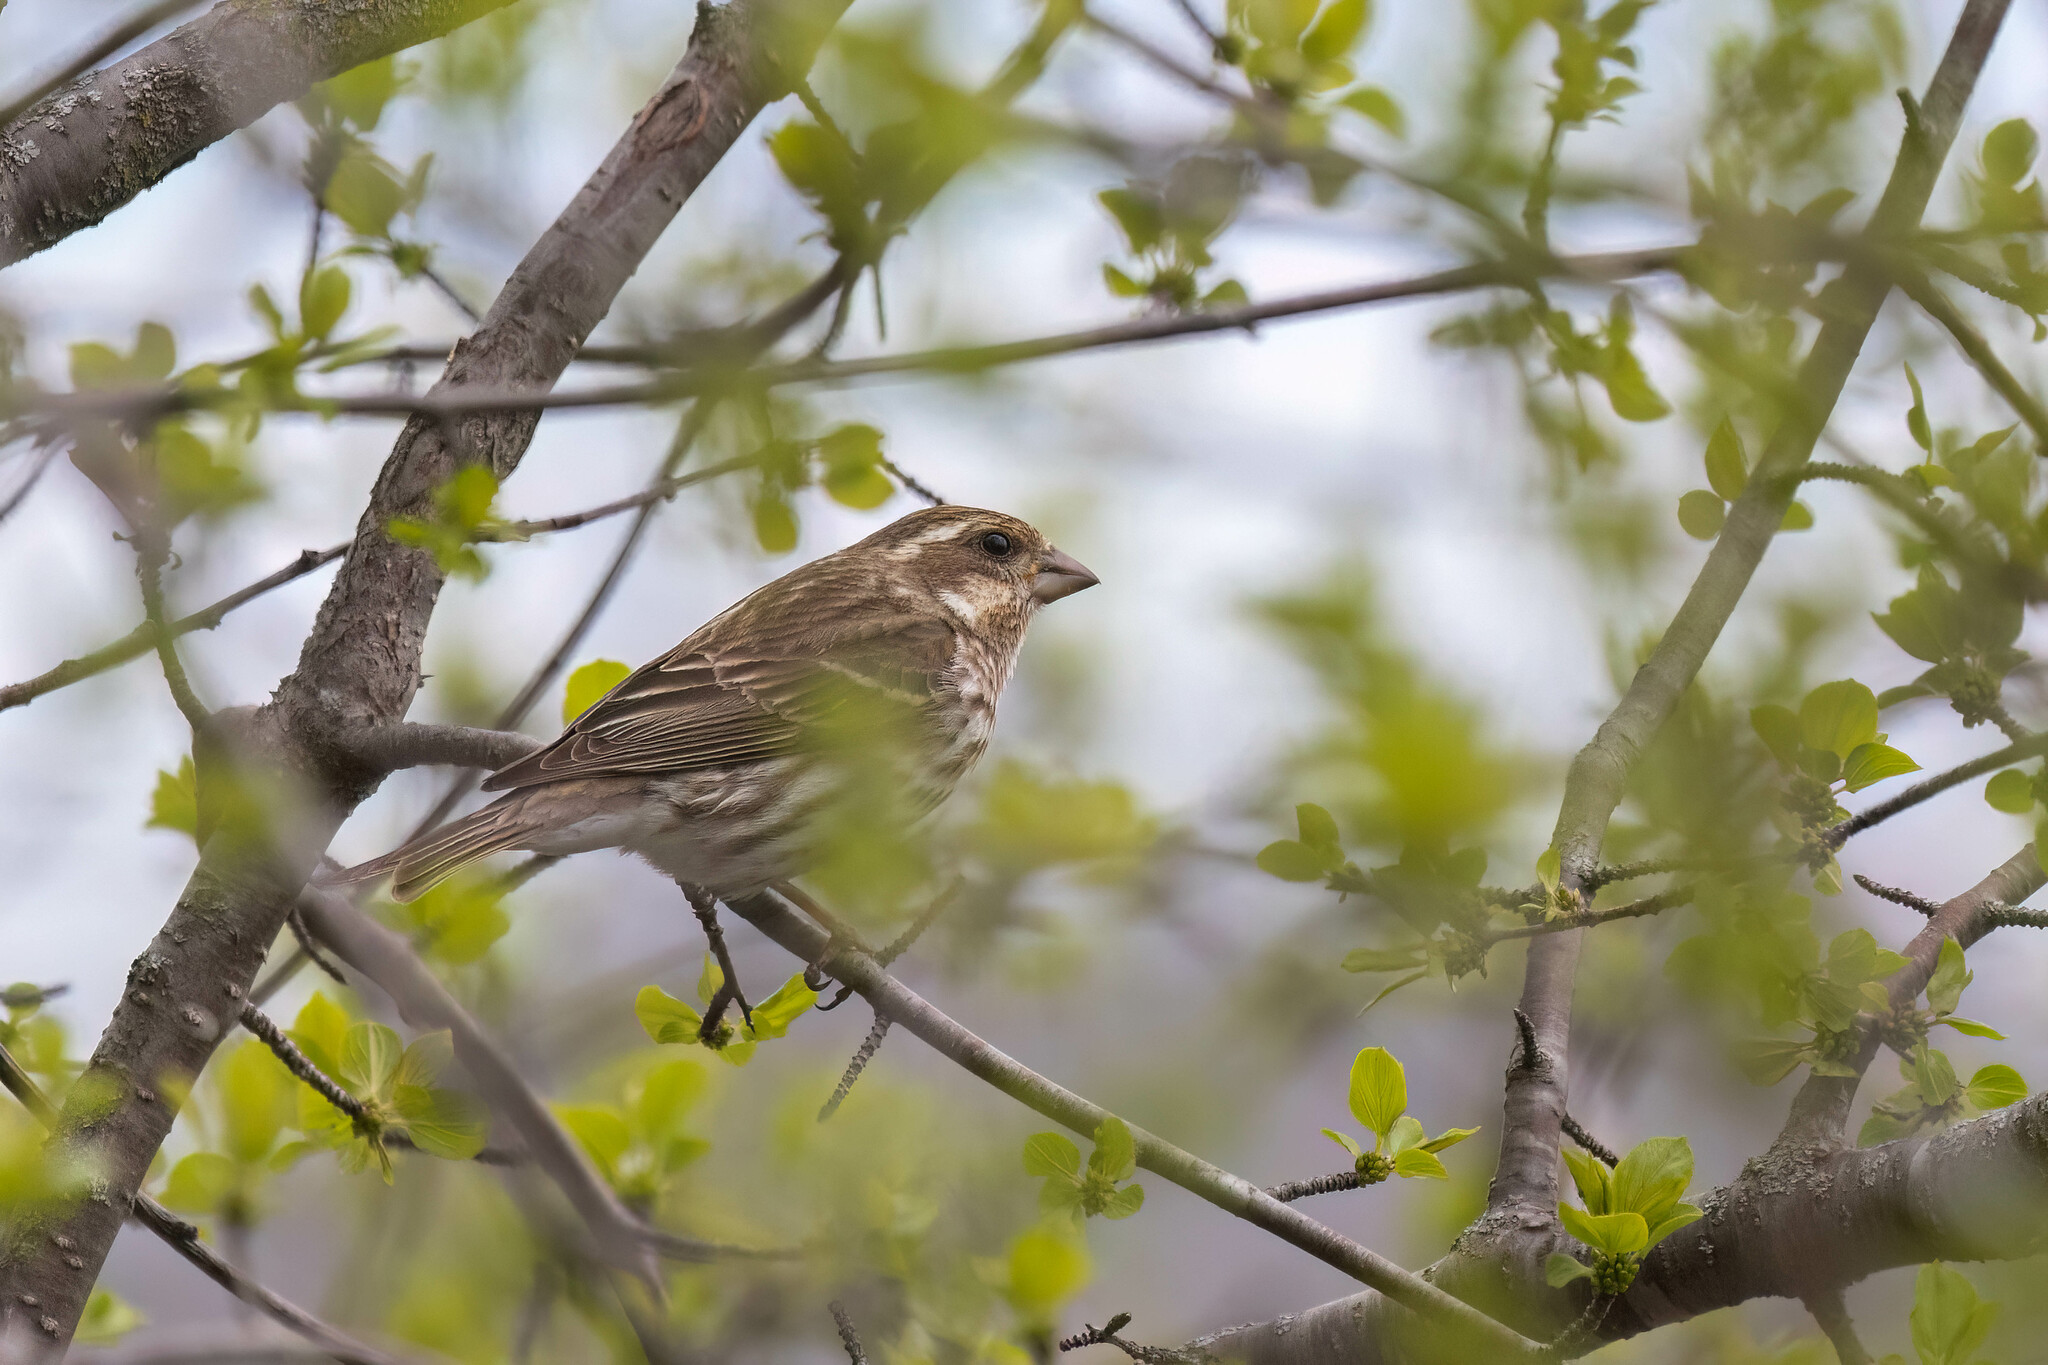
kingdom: Animalia
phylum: Chordata
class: Aves
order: Passeriformes
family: Fringillidae
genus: Haemorhous
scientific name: Haemorhous purpureus
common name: Purple finch
